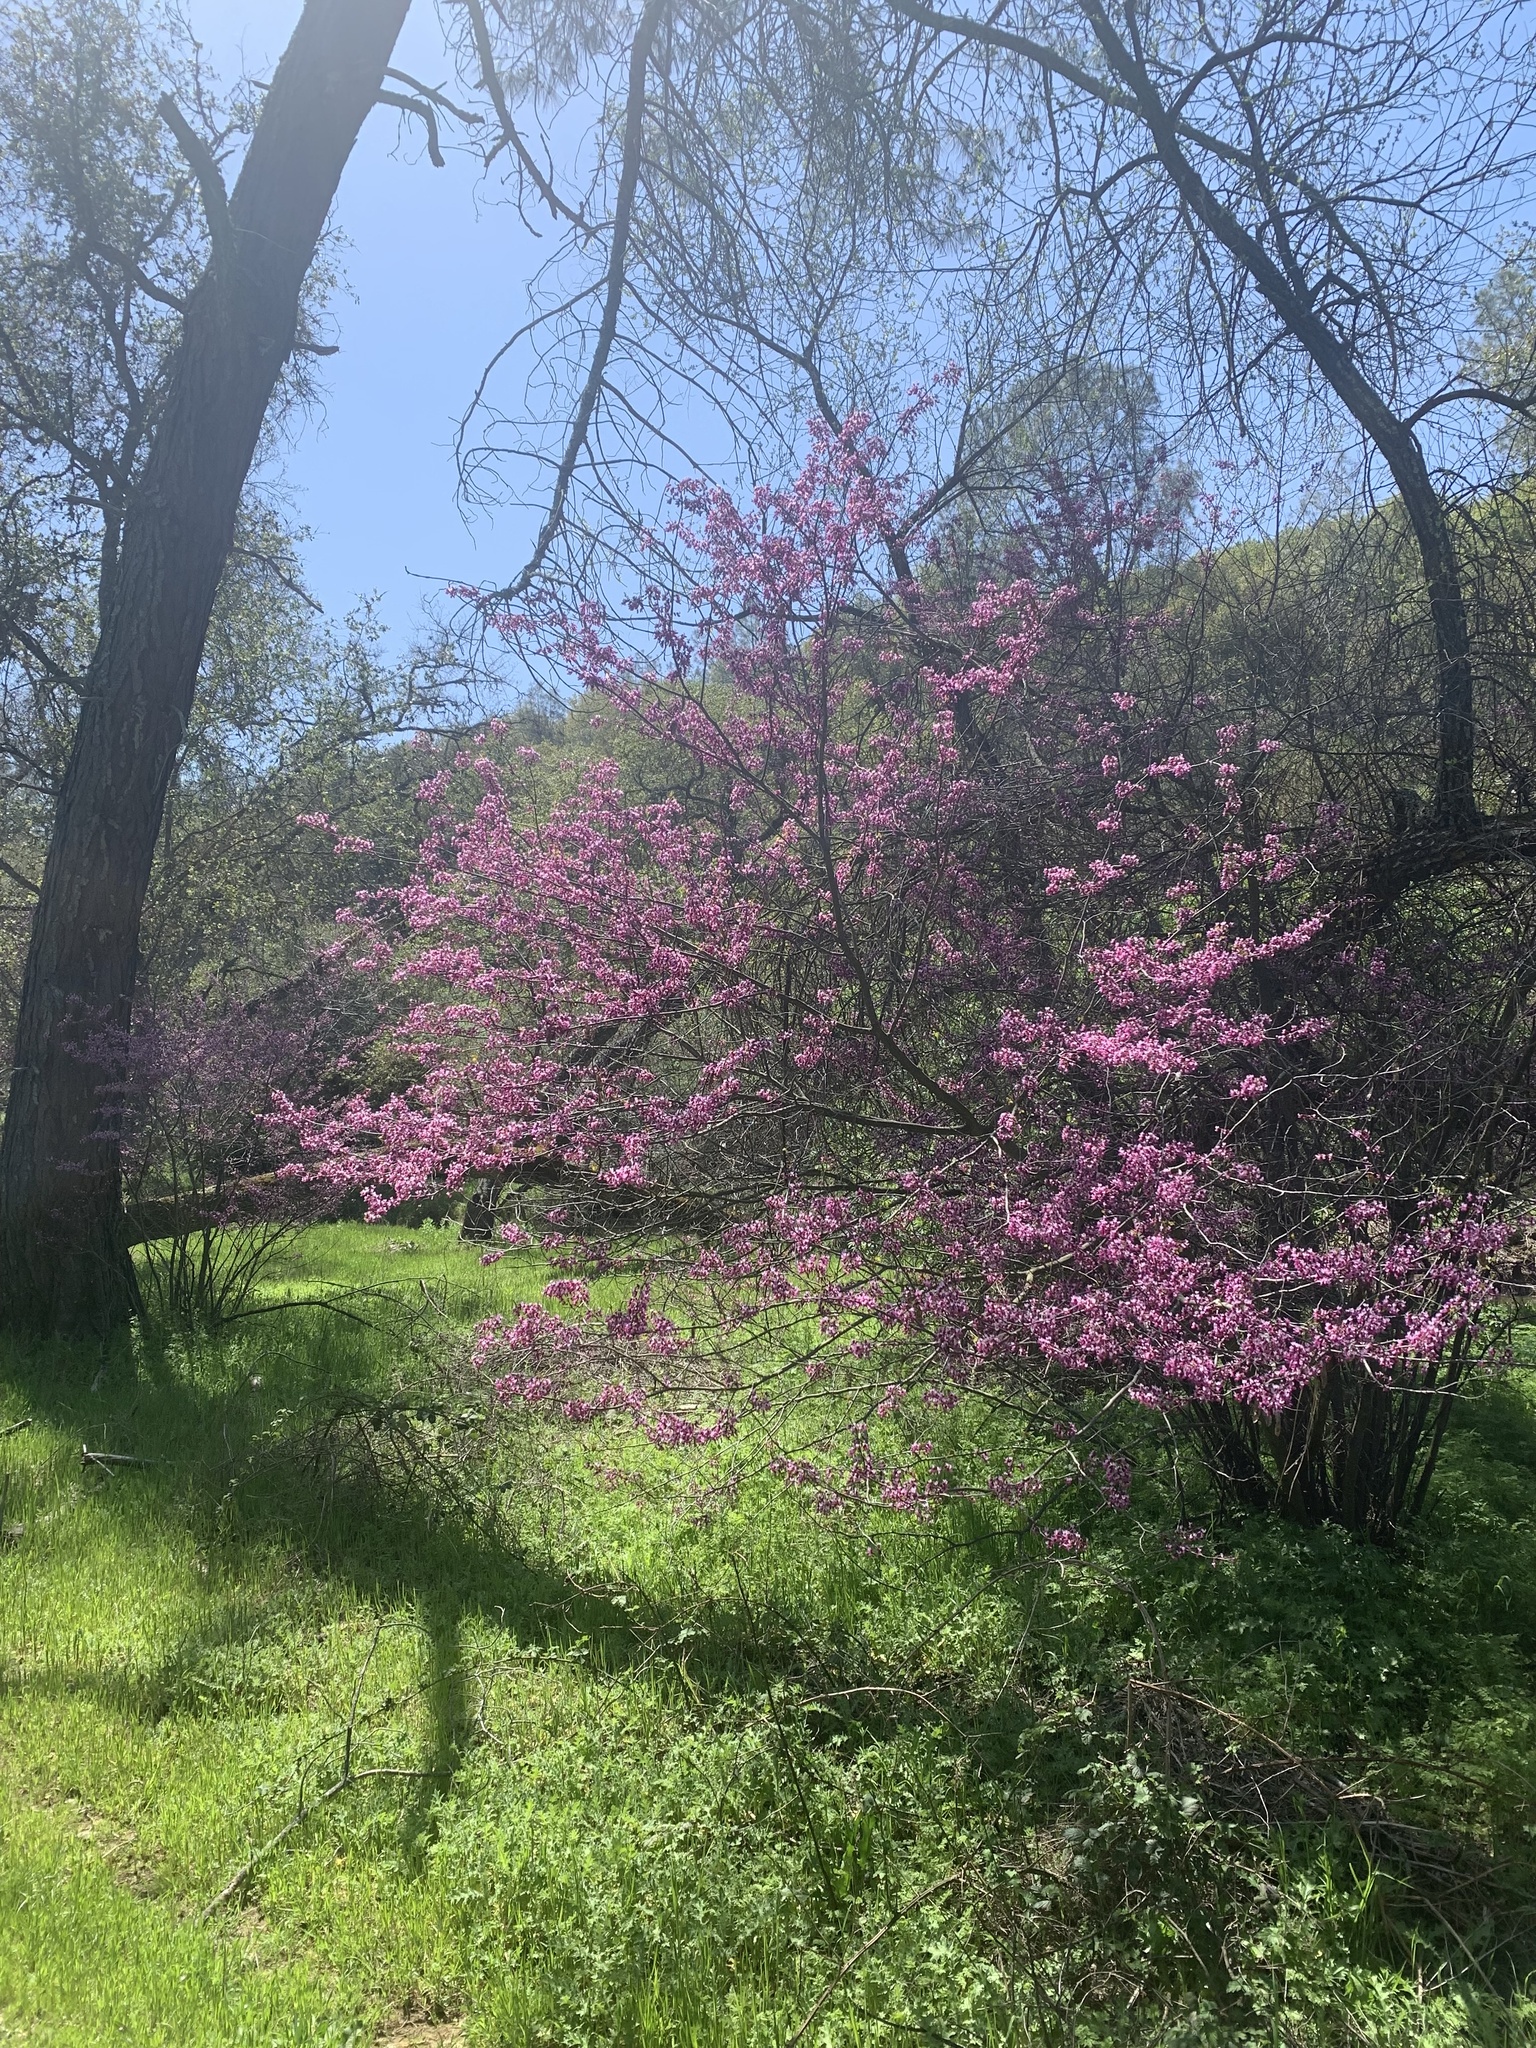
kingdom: Plantae
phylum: Tracheophyta
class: Magnoliopsida
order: Fabales
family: Fabaceae
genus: Cercis
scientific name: Cercis occidentalis
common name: California redbud
